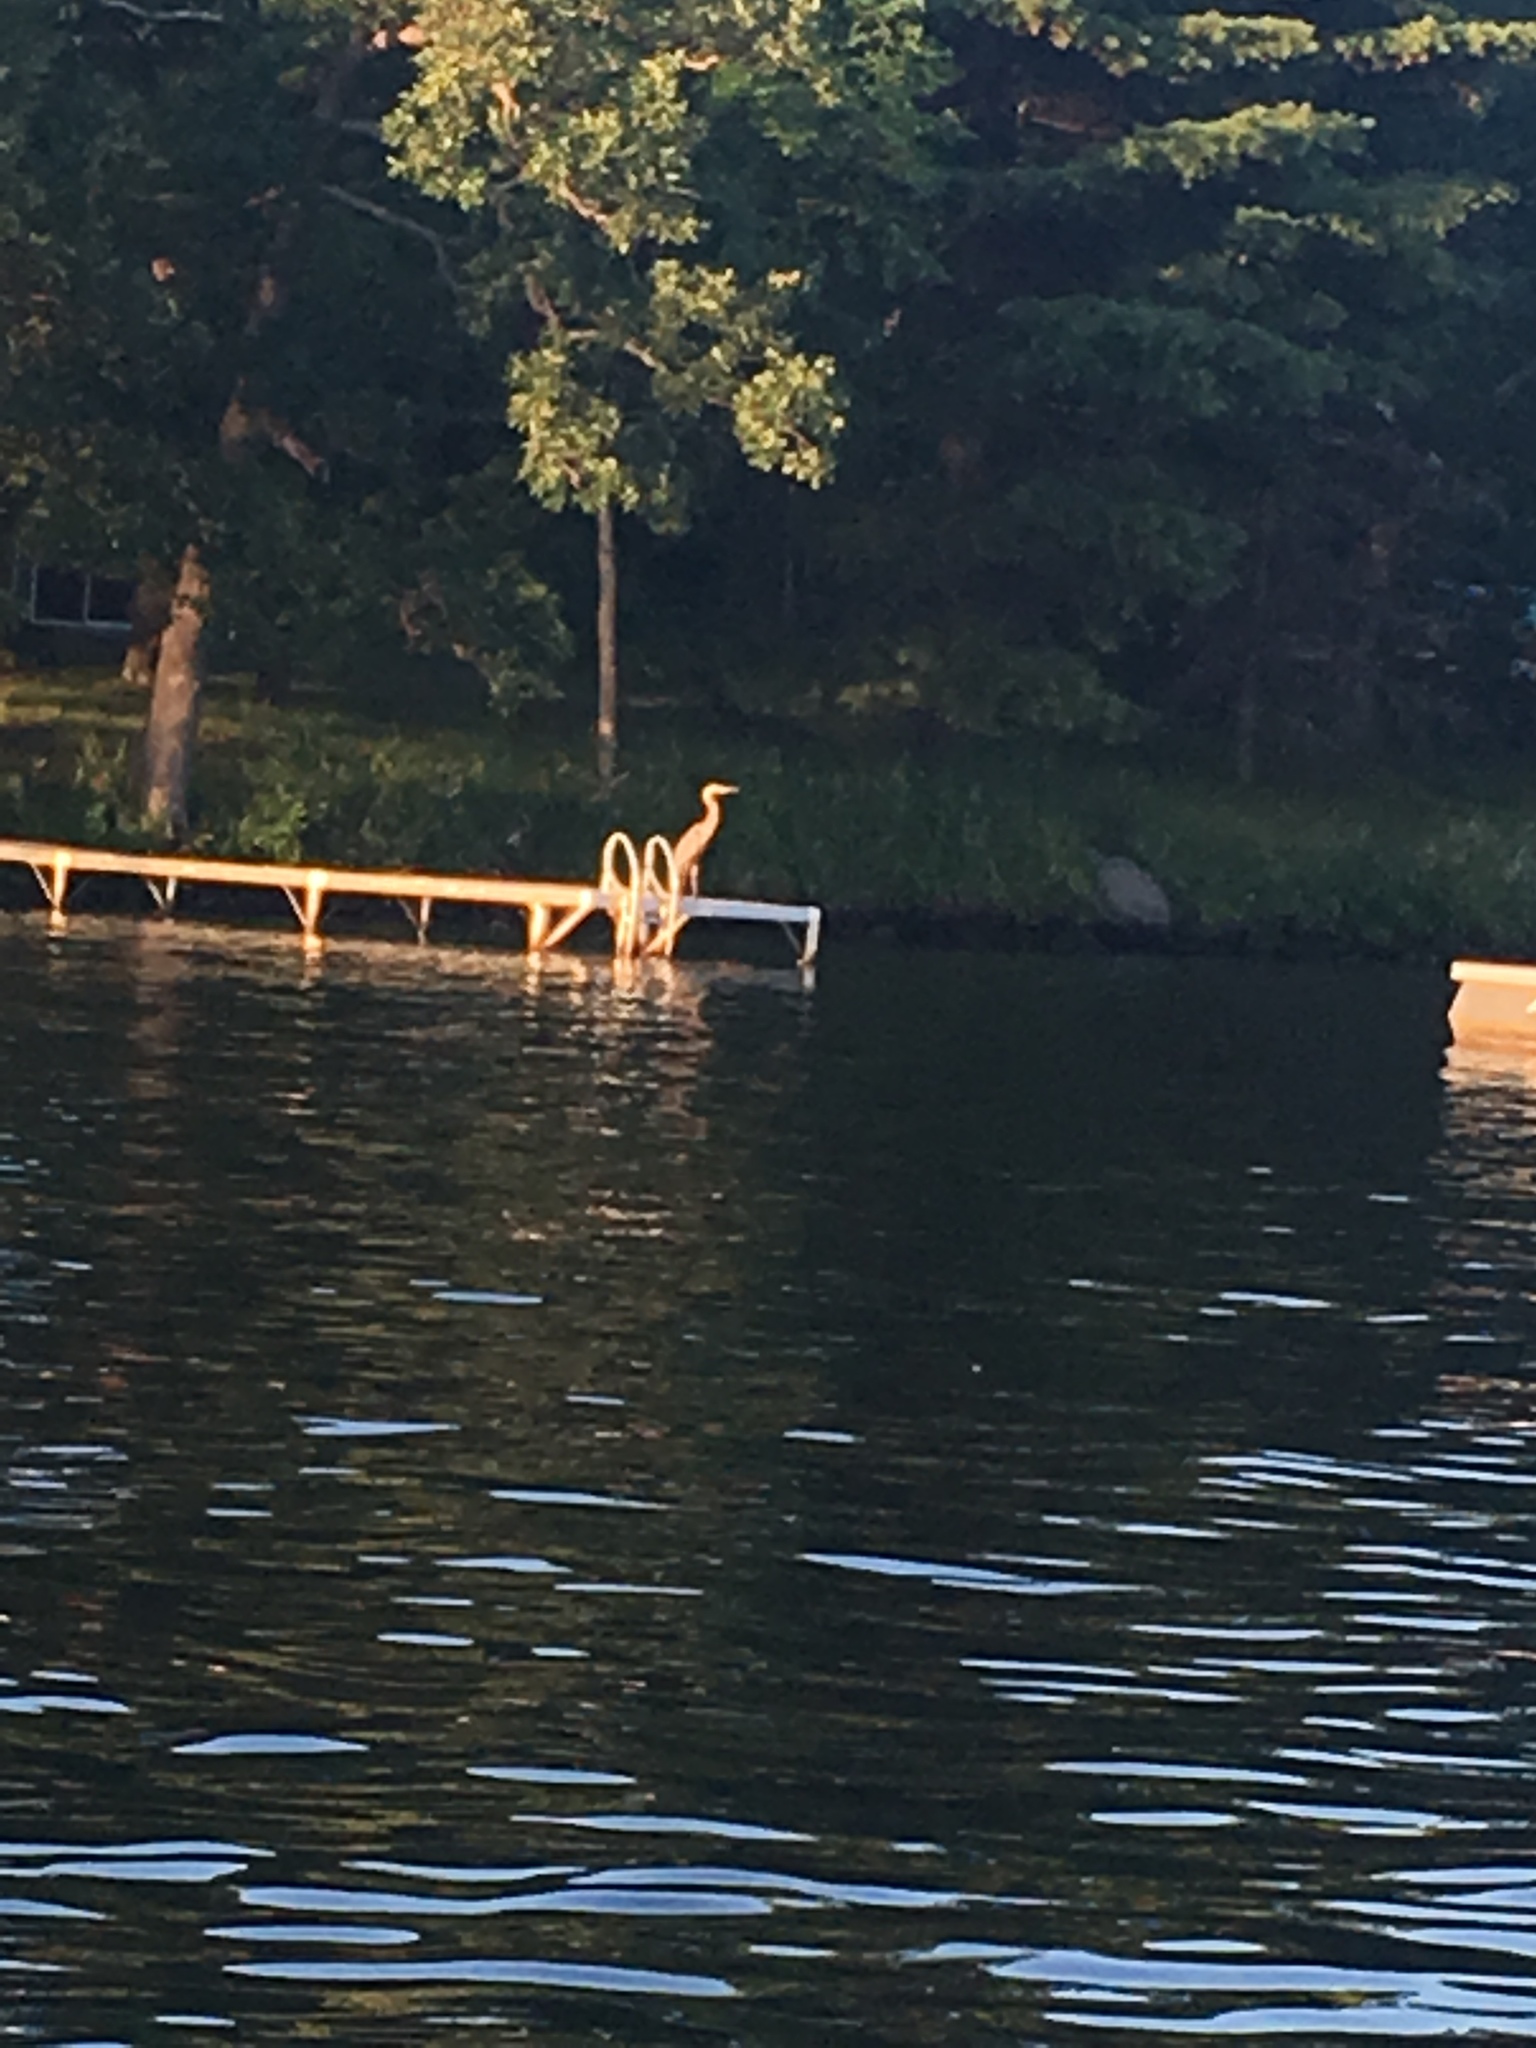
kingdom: Animalia
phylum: Chordata
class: Aves
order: Pelecaniformes
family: Ardeidae
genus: Ardea
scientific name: Ardea herodias
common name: Great blue heron
